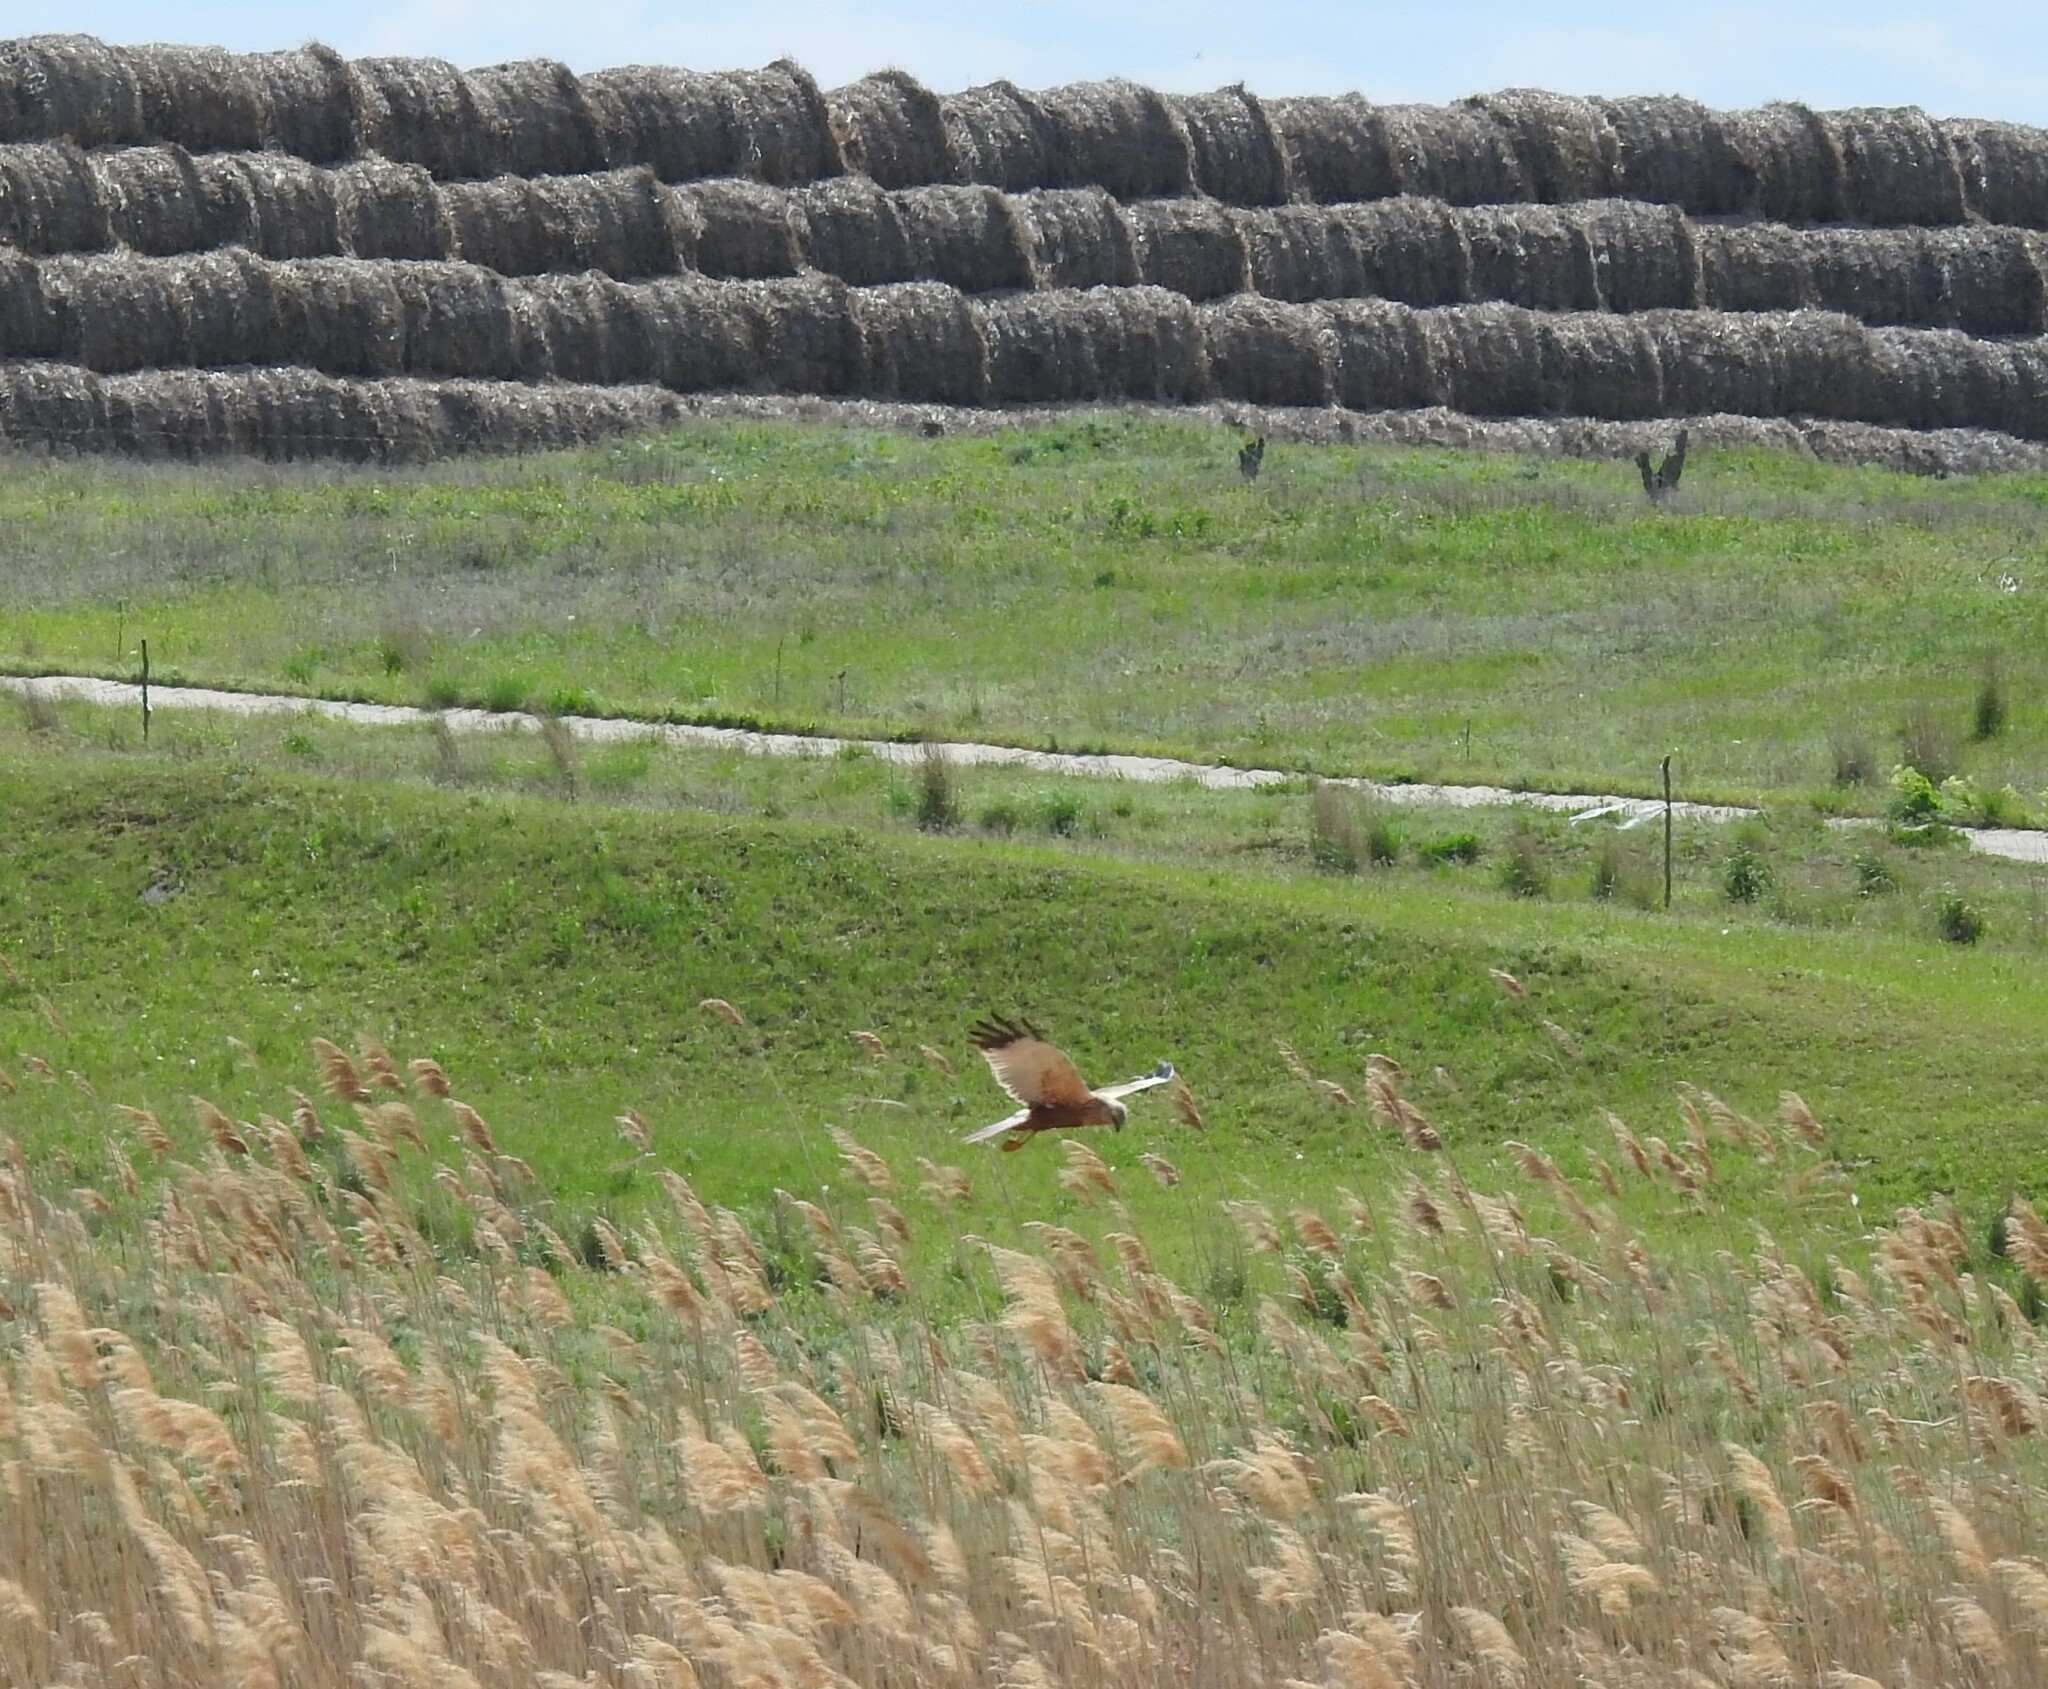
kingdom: Animalia
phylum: Chordata
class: Aves
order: Accipitriformes
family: Accipitridae
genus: Circus
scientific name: Circus aeruginosus
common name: Western marsh harrier
